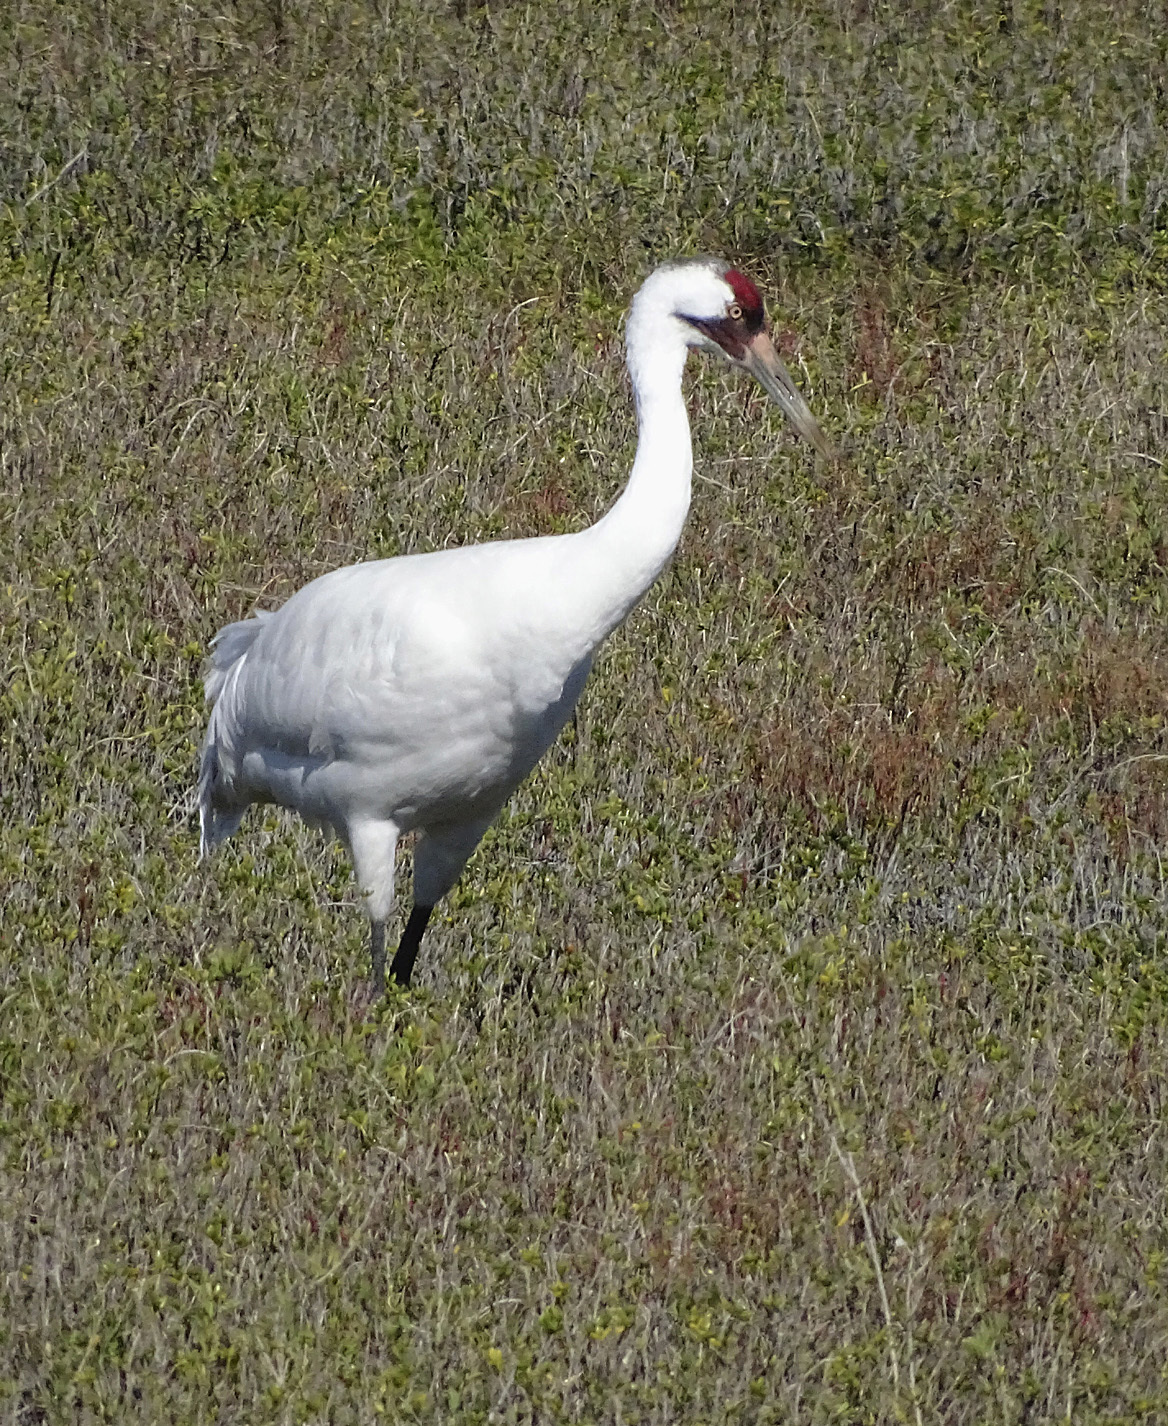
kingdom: Animalia
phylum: Chordata
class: Aves
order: Gruiformes
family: Gruidae
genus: Grus
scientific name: Grus americana
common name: Whooping crane
